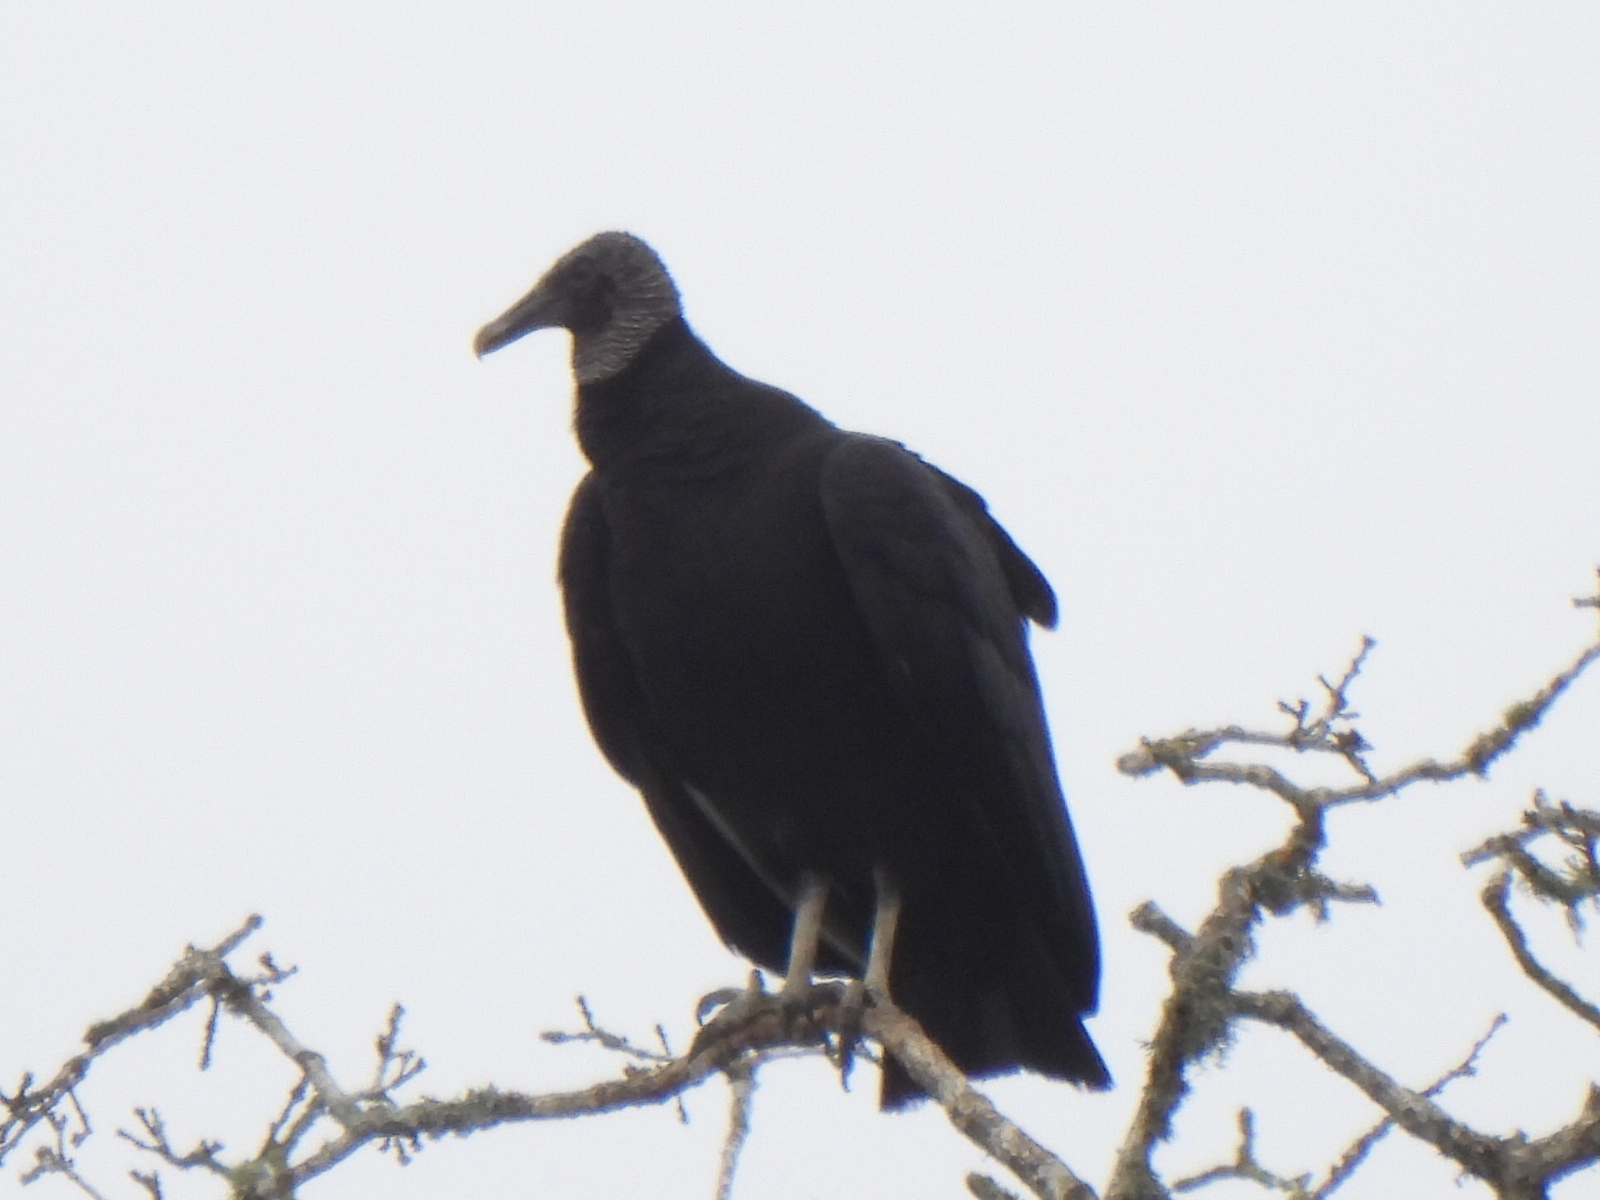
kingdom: Animalia
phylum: Chordata
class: Aves
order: Accipitriformes
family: Cathartidae
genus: Coragyps
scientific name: Coragyps atratus
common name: Black vulture
